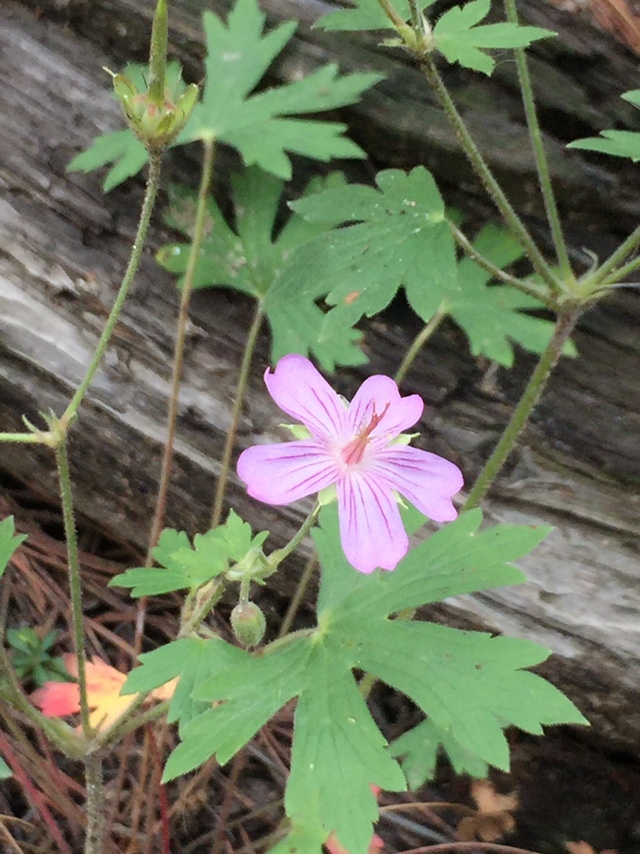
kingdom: Plantae
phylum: Tracheophyta
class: Magnoliopsida
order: Geraniales
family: Geraniaceae
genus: Geranium
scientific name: Geranium viscosissimum
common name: Purple geranium
